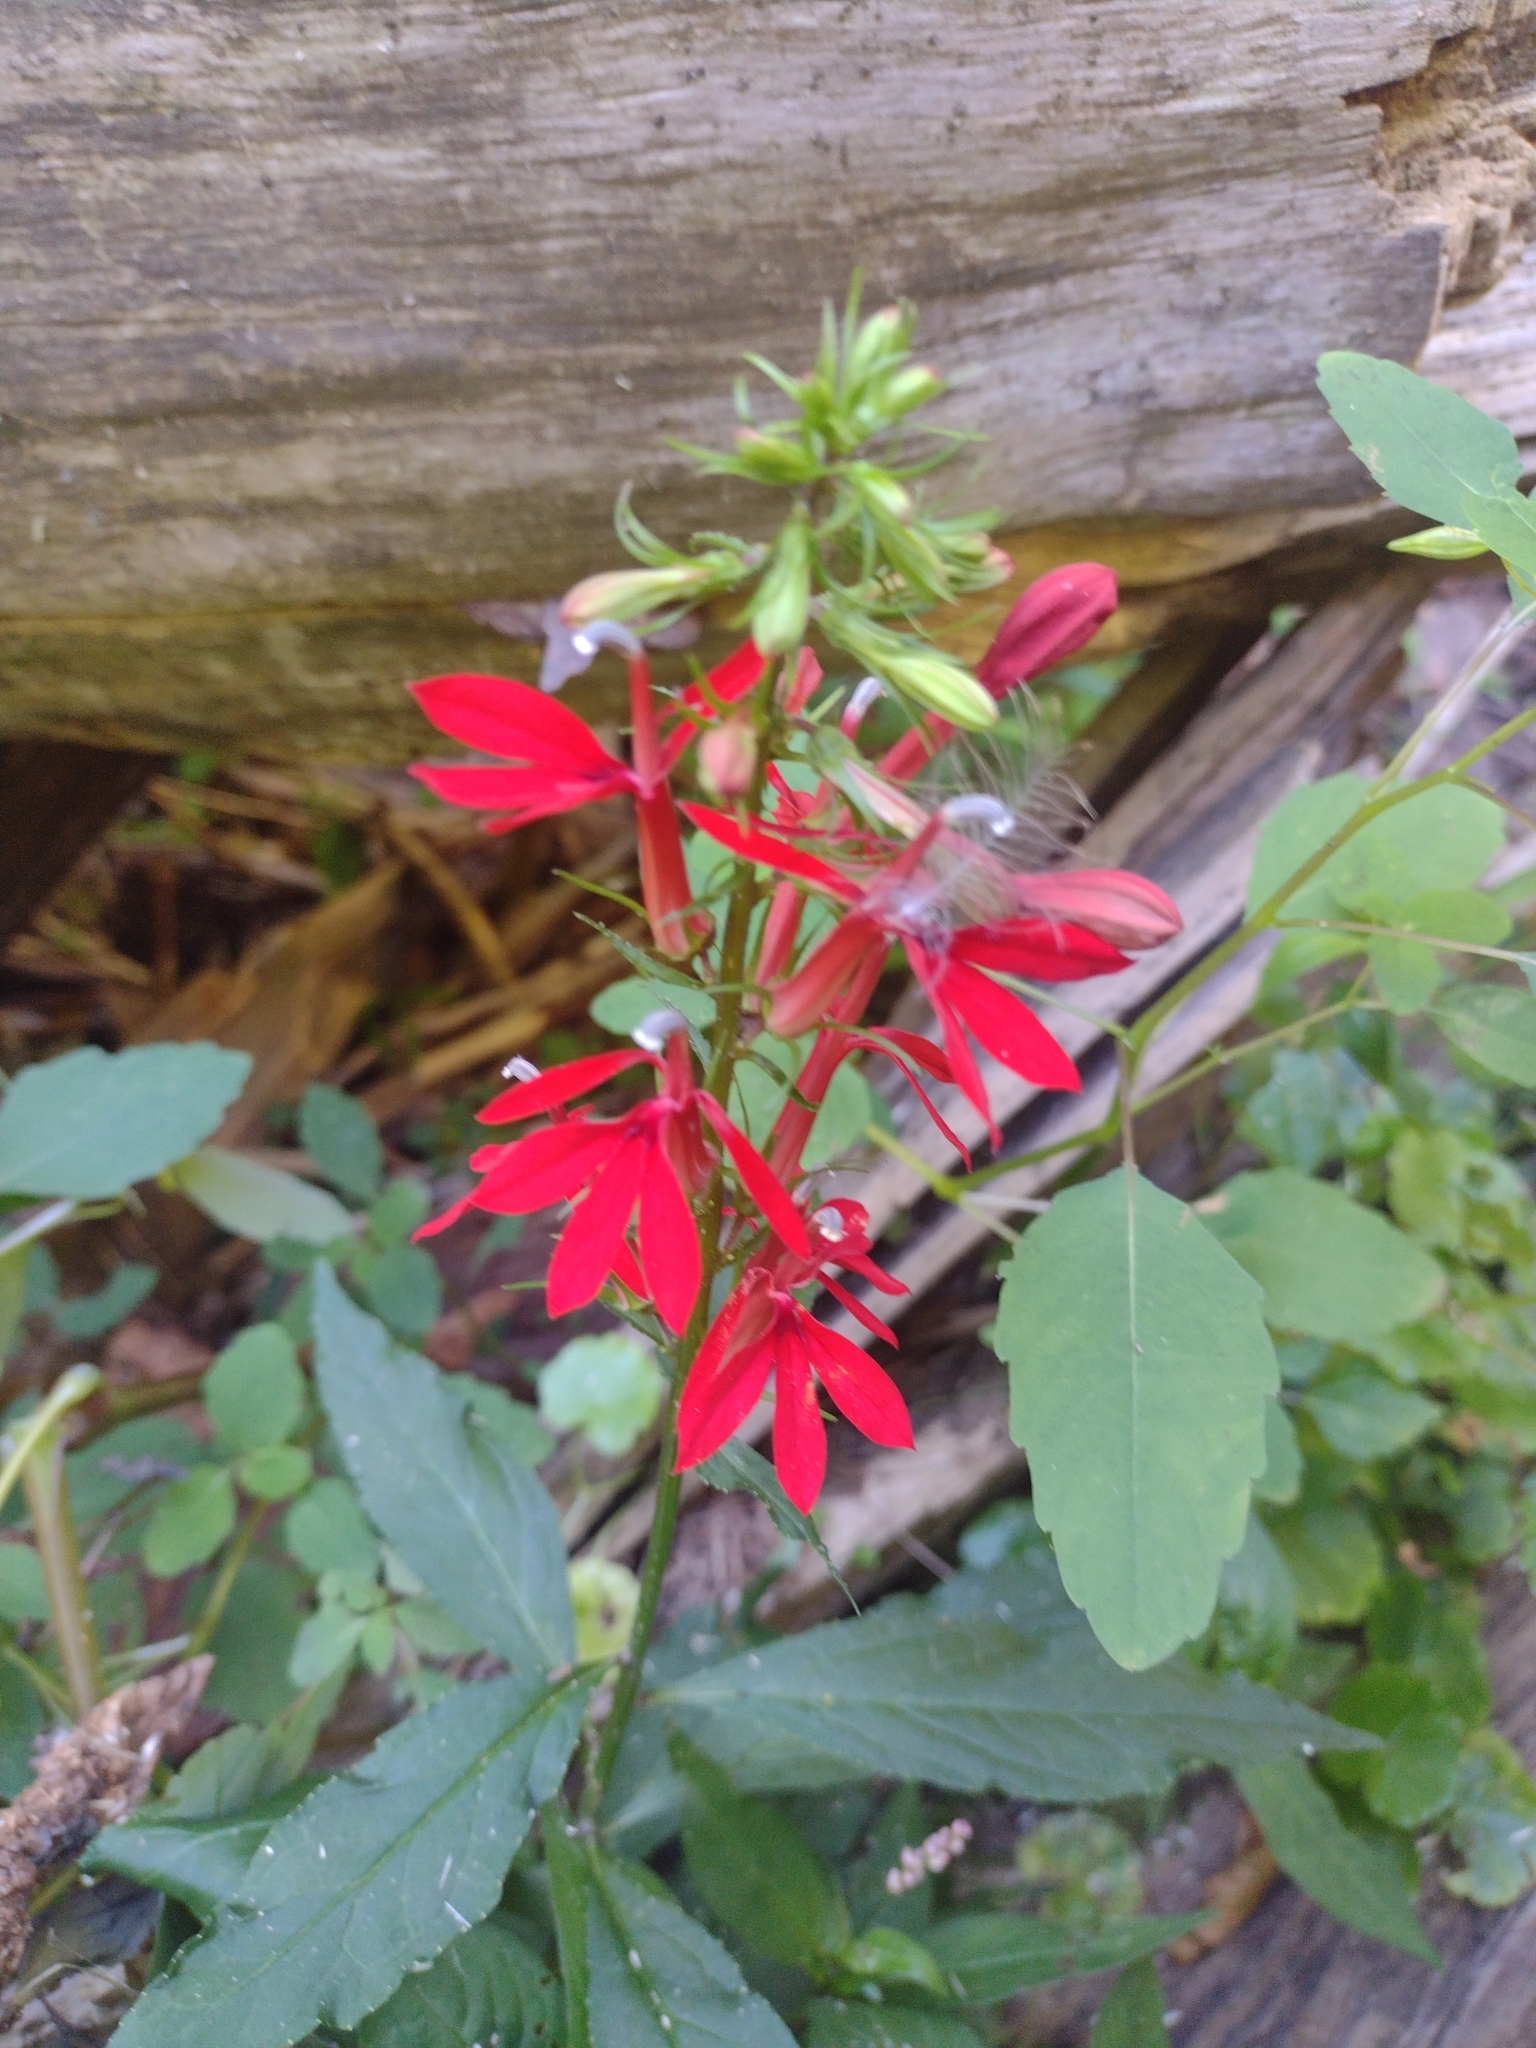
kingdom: Plantae
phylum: Tracheophyta
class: Magnoliopsida
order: Asterales
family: Campanulaceae
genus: Lobelia
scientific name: Lobelia cardinalis
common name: Cardinal flower
